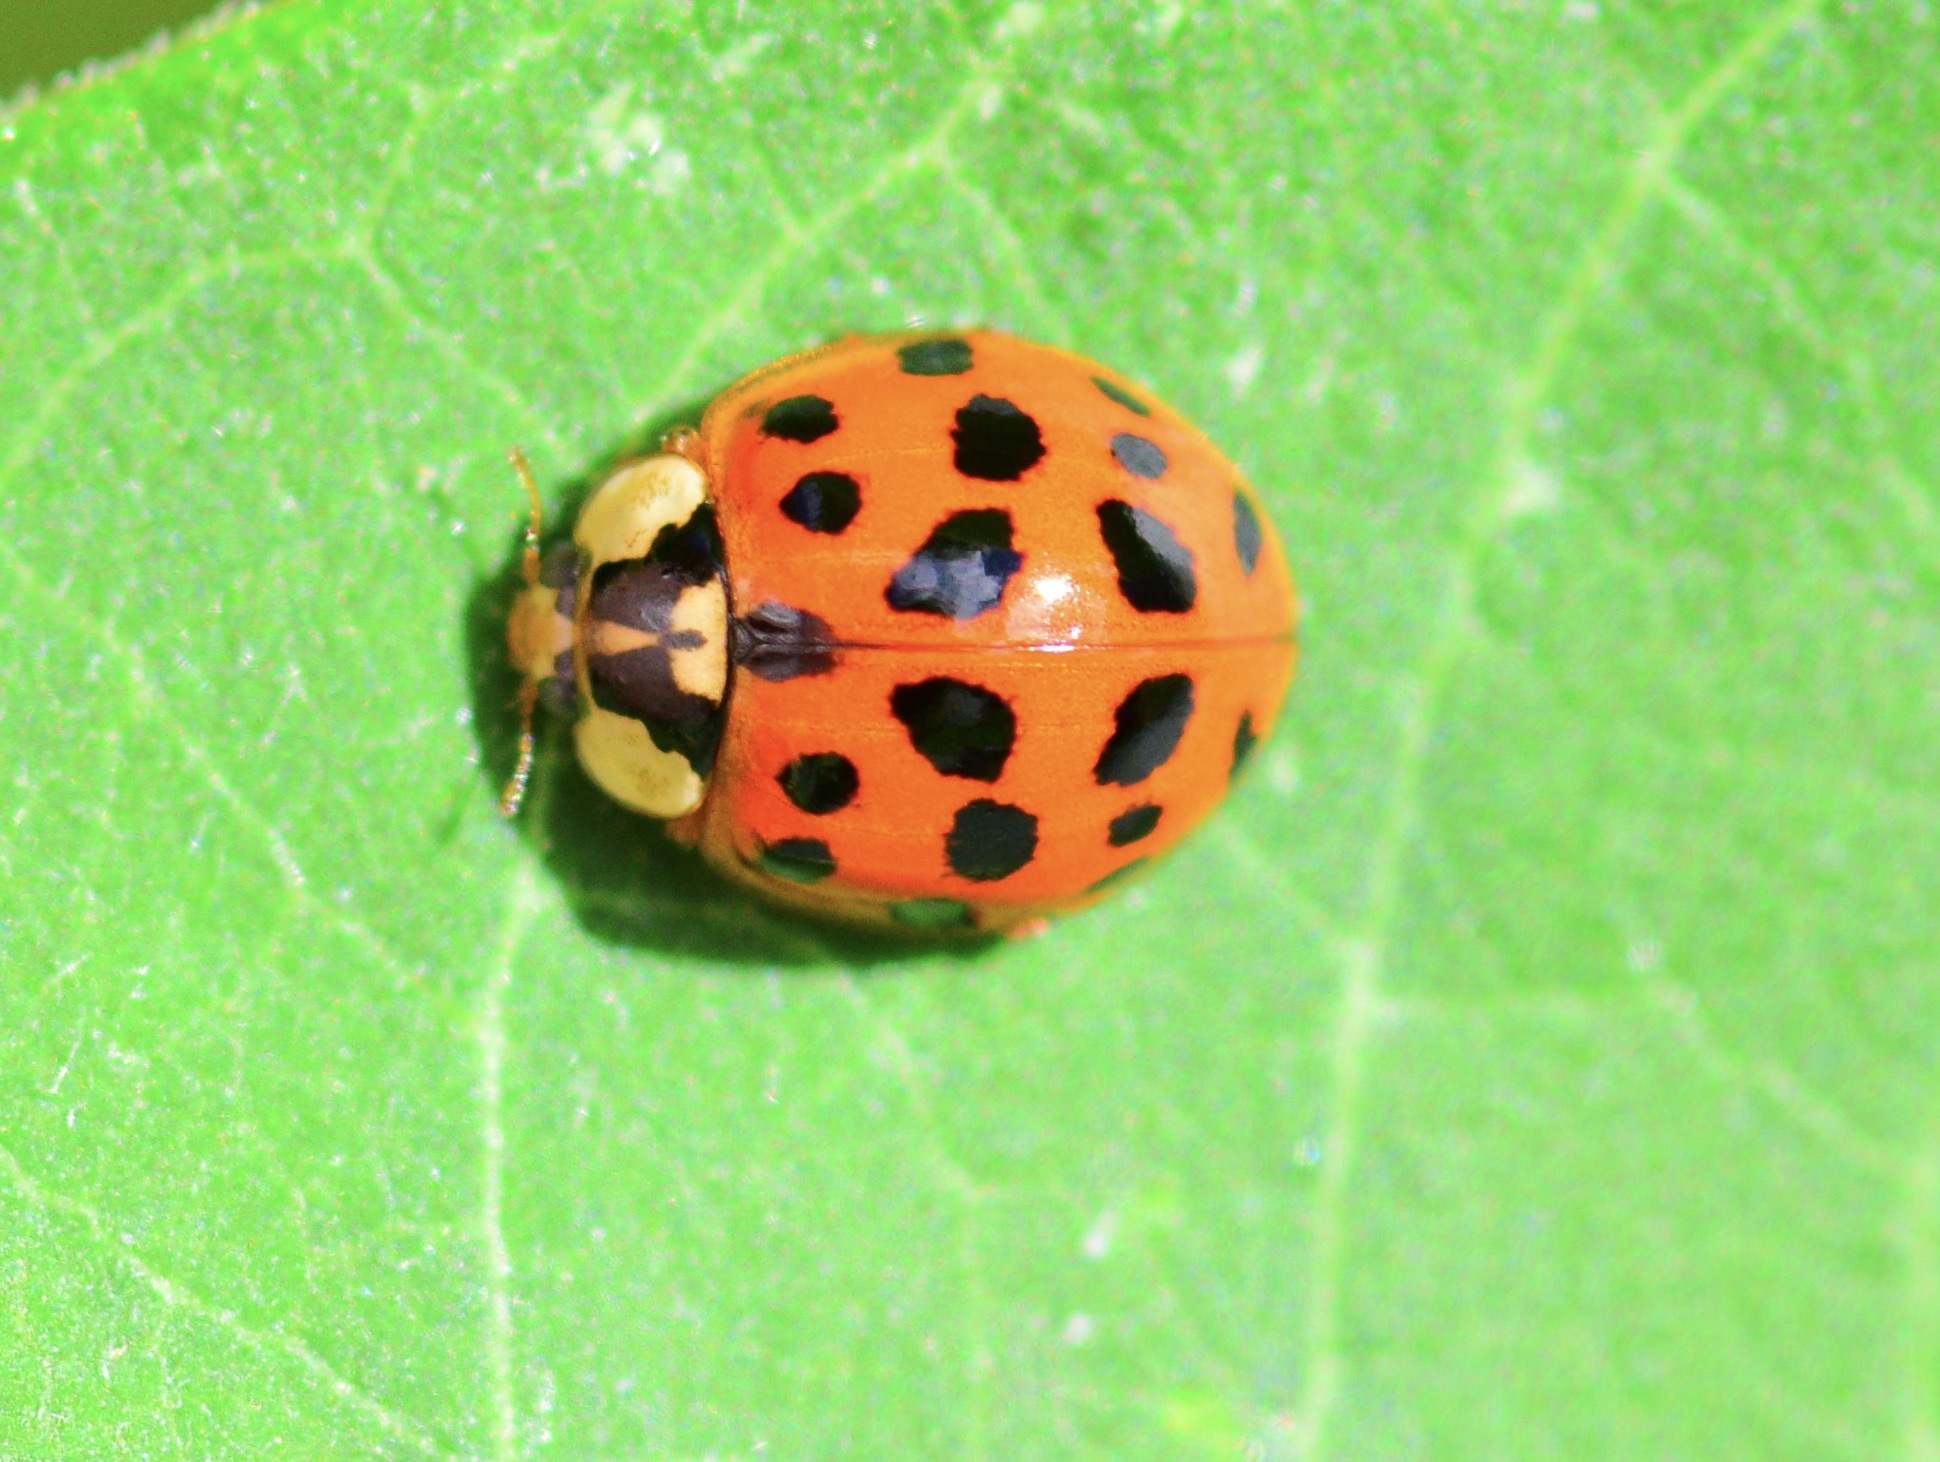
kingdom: Animalia
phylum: Arthropoda
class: Insecta
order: Coleoptera
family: Coccinellidae
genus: Harmonia
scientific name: Harmonia axyridis
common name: Harlequin ladybird
